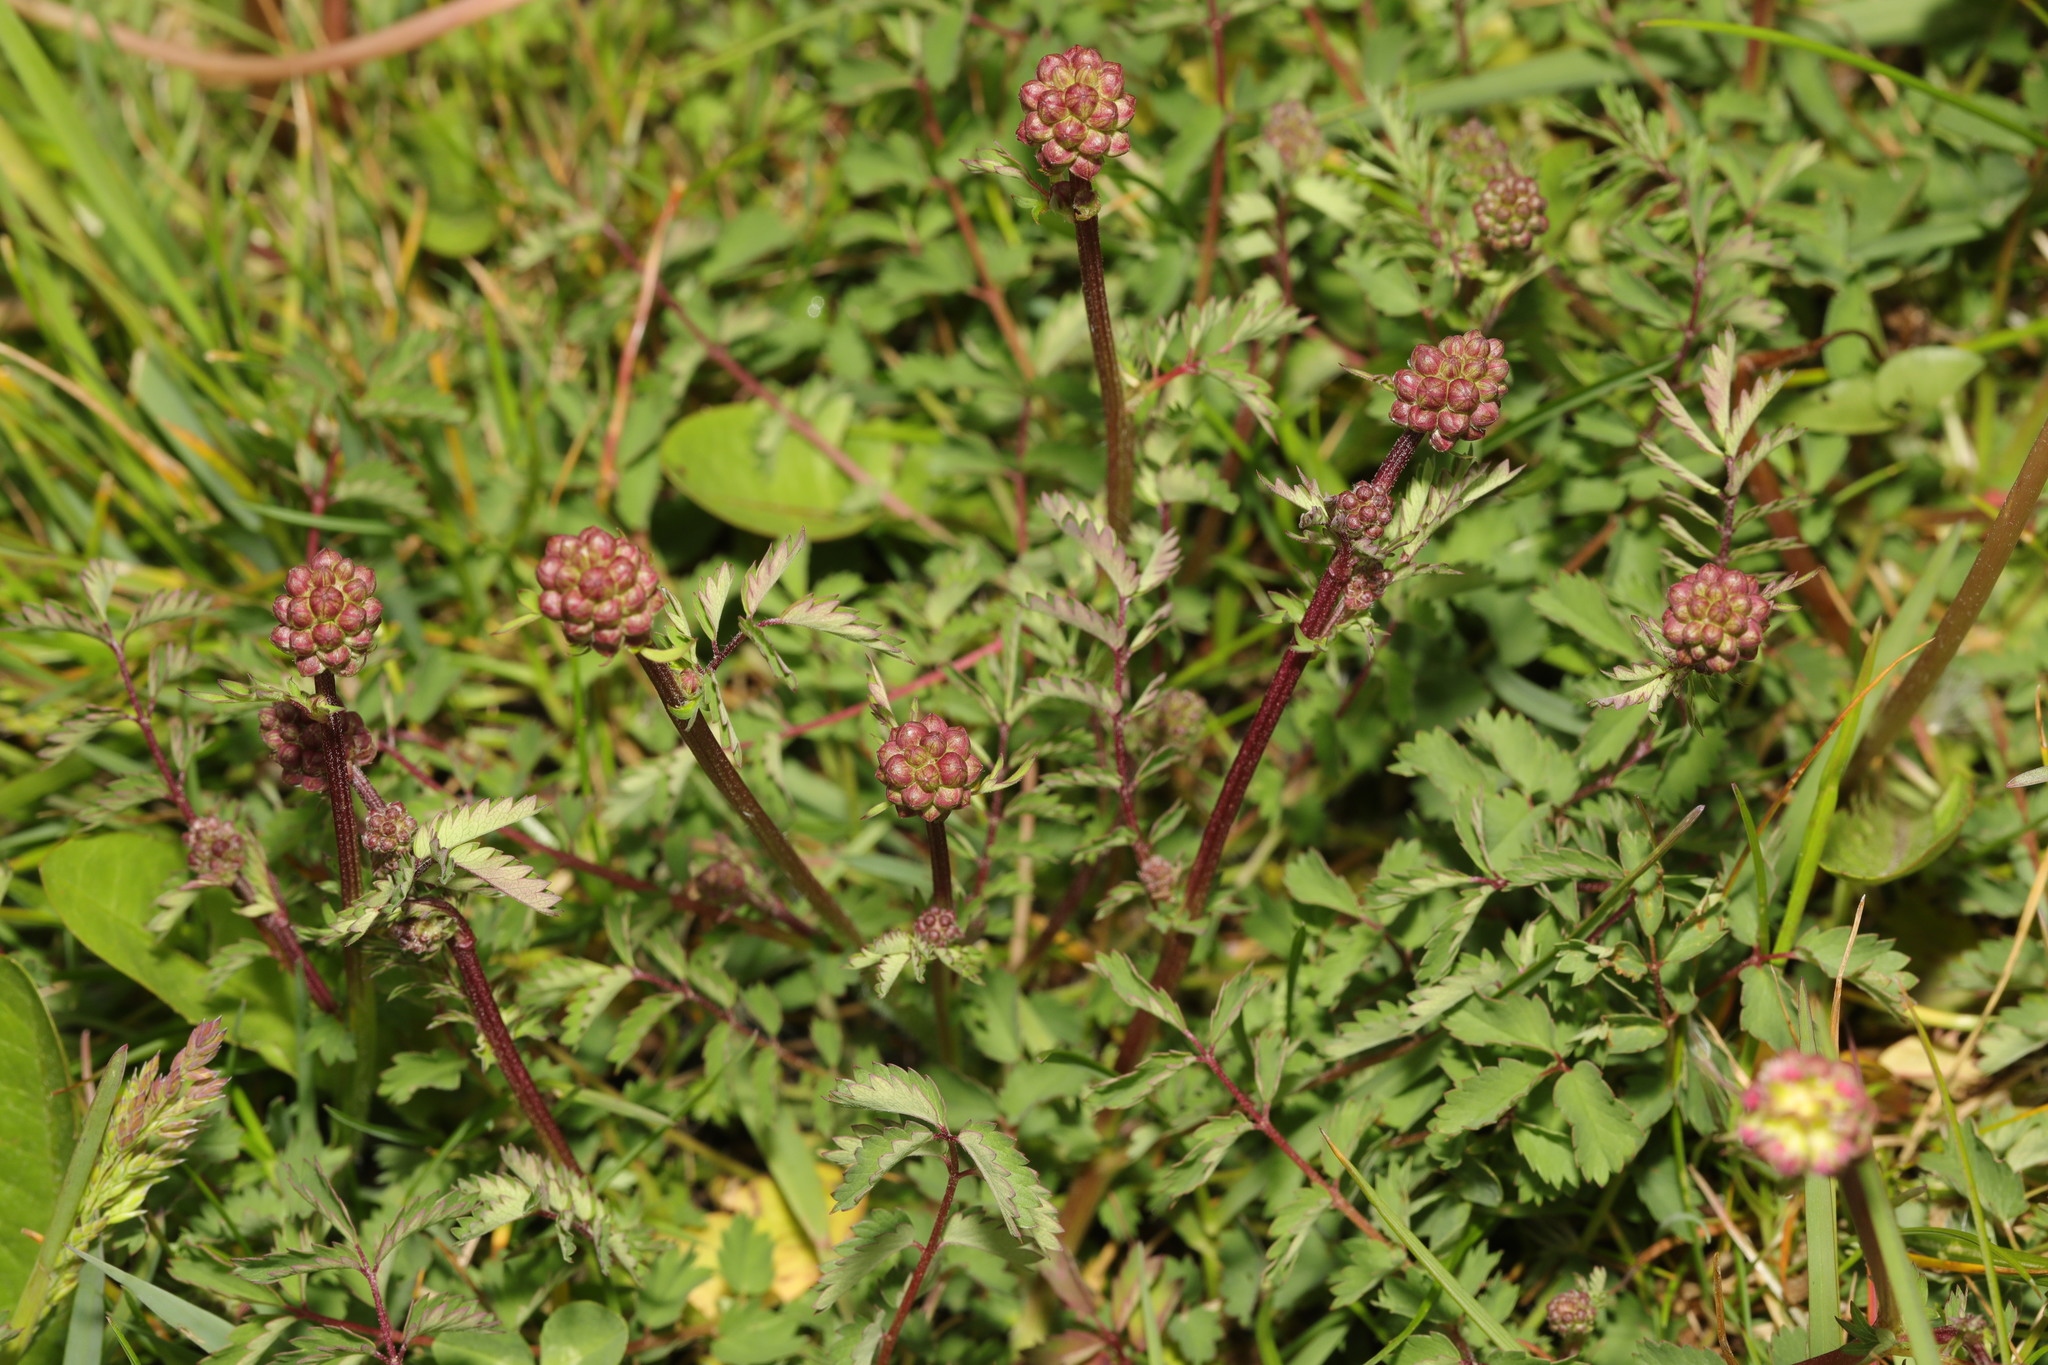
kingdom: Plantae
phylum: Tracheophyta
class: Magnoliopsida
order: Rosales
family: Rosaceae
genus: Poterium
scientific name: Poterium sanguisorba
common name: Salad burnet
